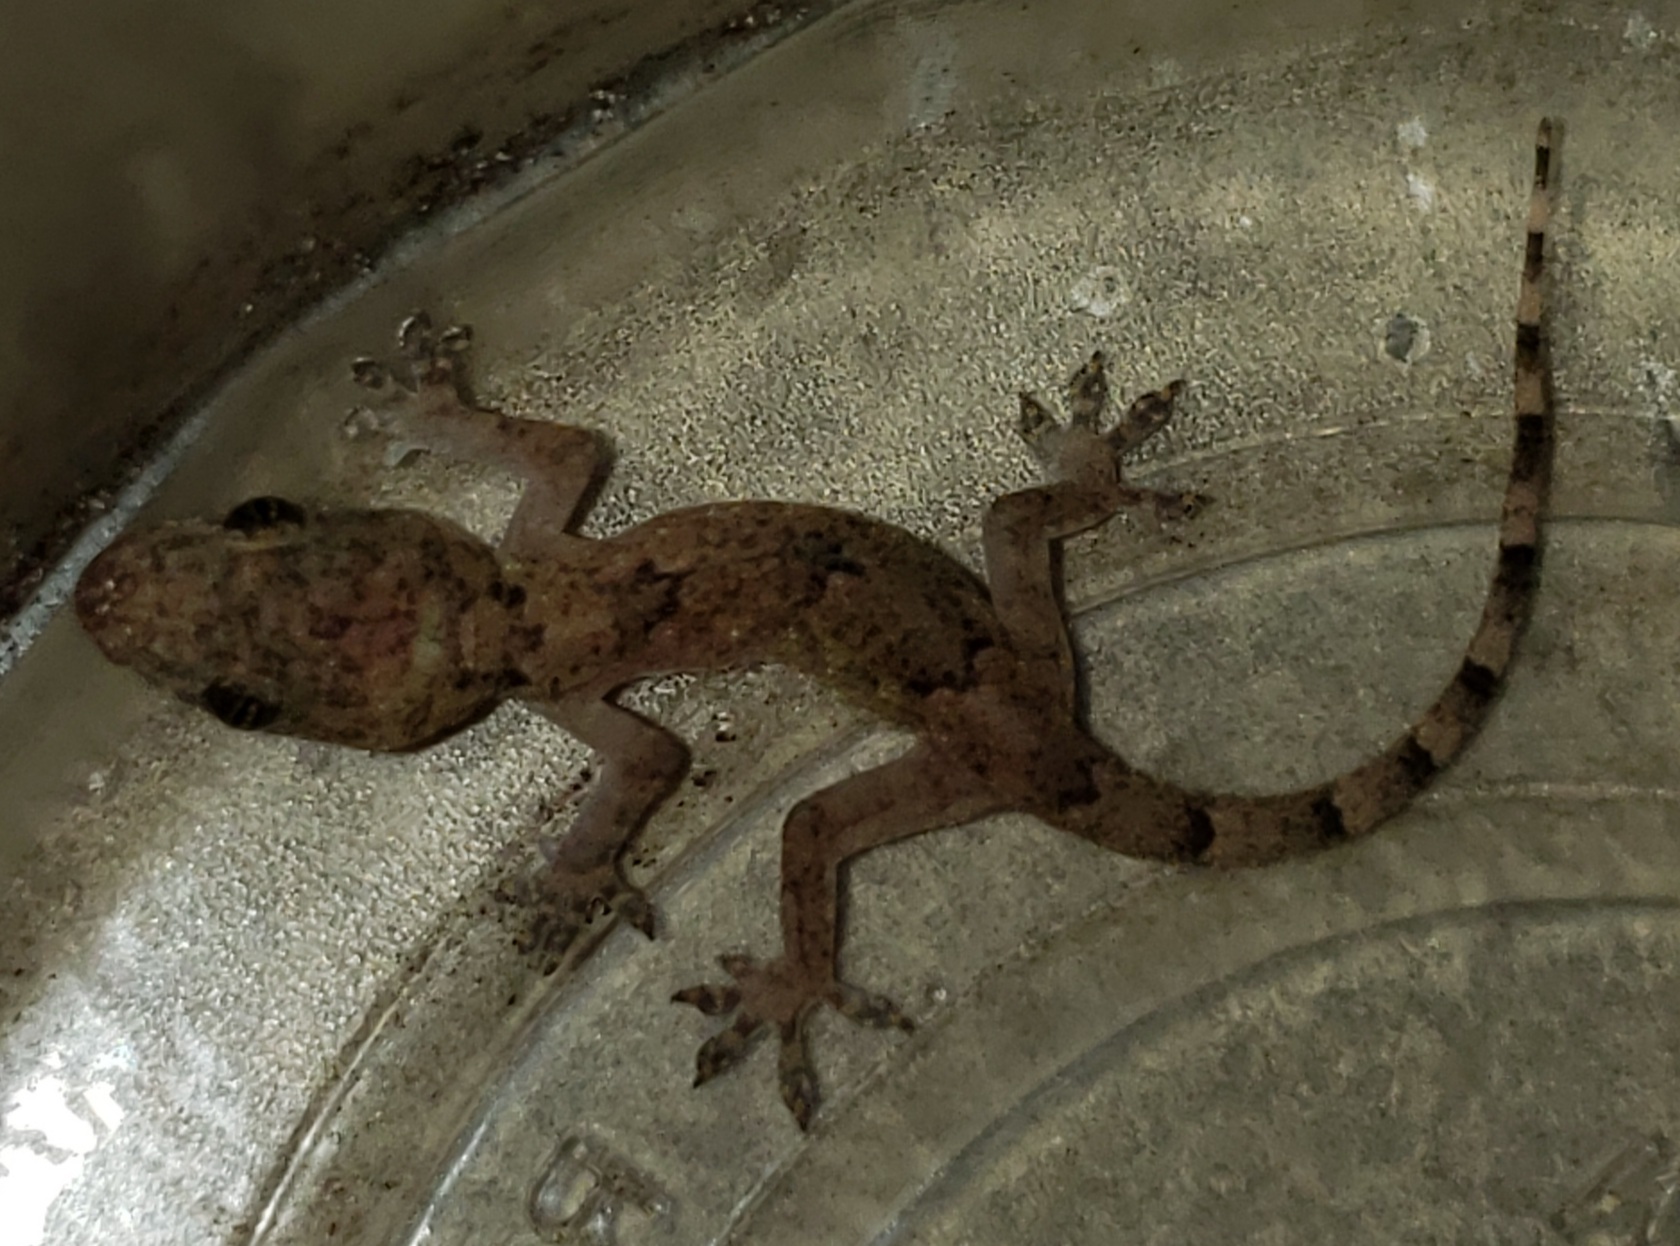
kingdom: Animalia
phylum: Chordata
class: Squamata
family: Gekkonidae
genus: Hemidactylus
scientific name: Hemidactylus mabouia
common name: House gecko
